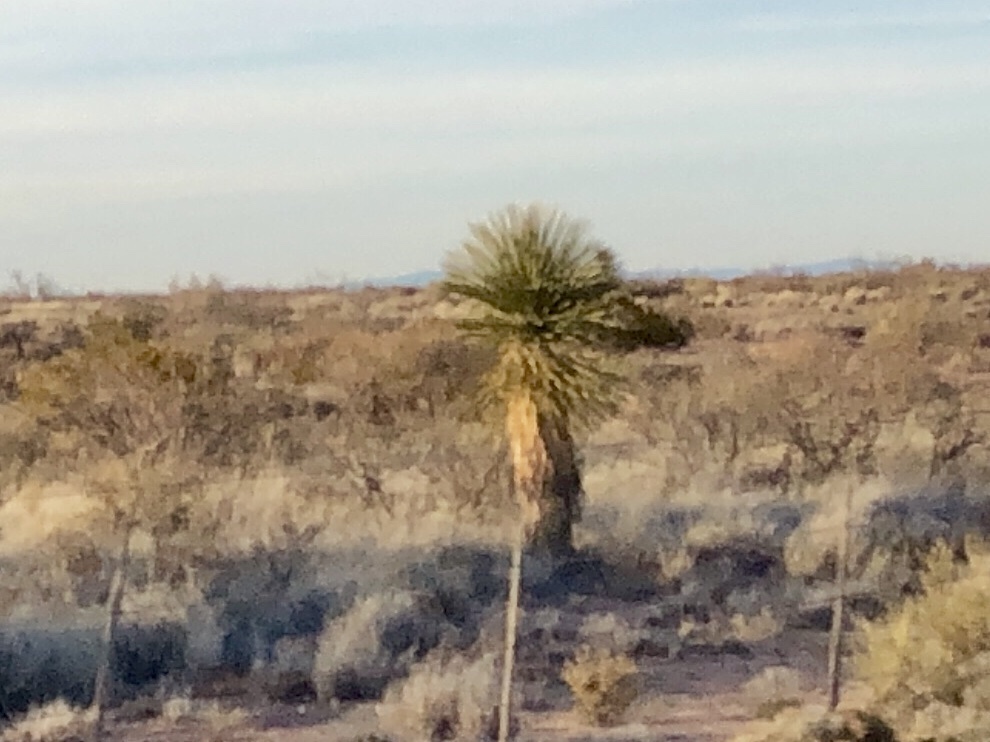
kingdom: Plantae
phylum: Tracheophyta
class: Liliopsida
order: Asparagales
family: Asparagaceae
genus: Yucca
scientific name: Yucca elata
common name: Palmella
